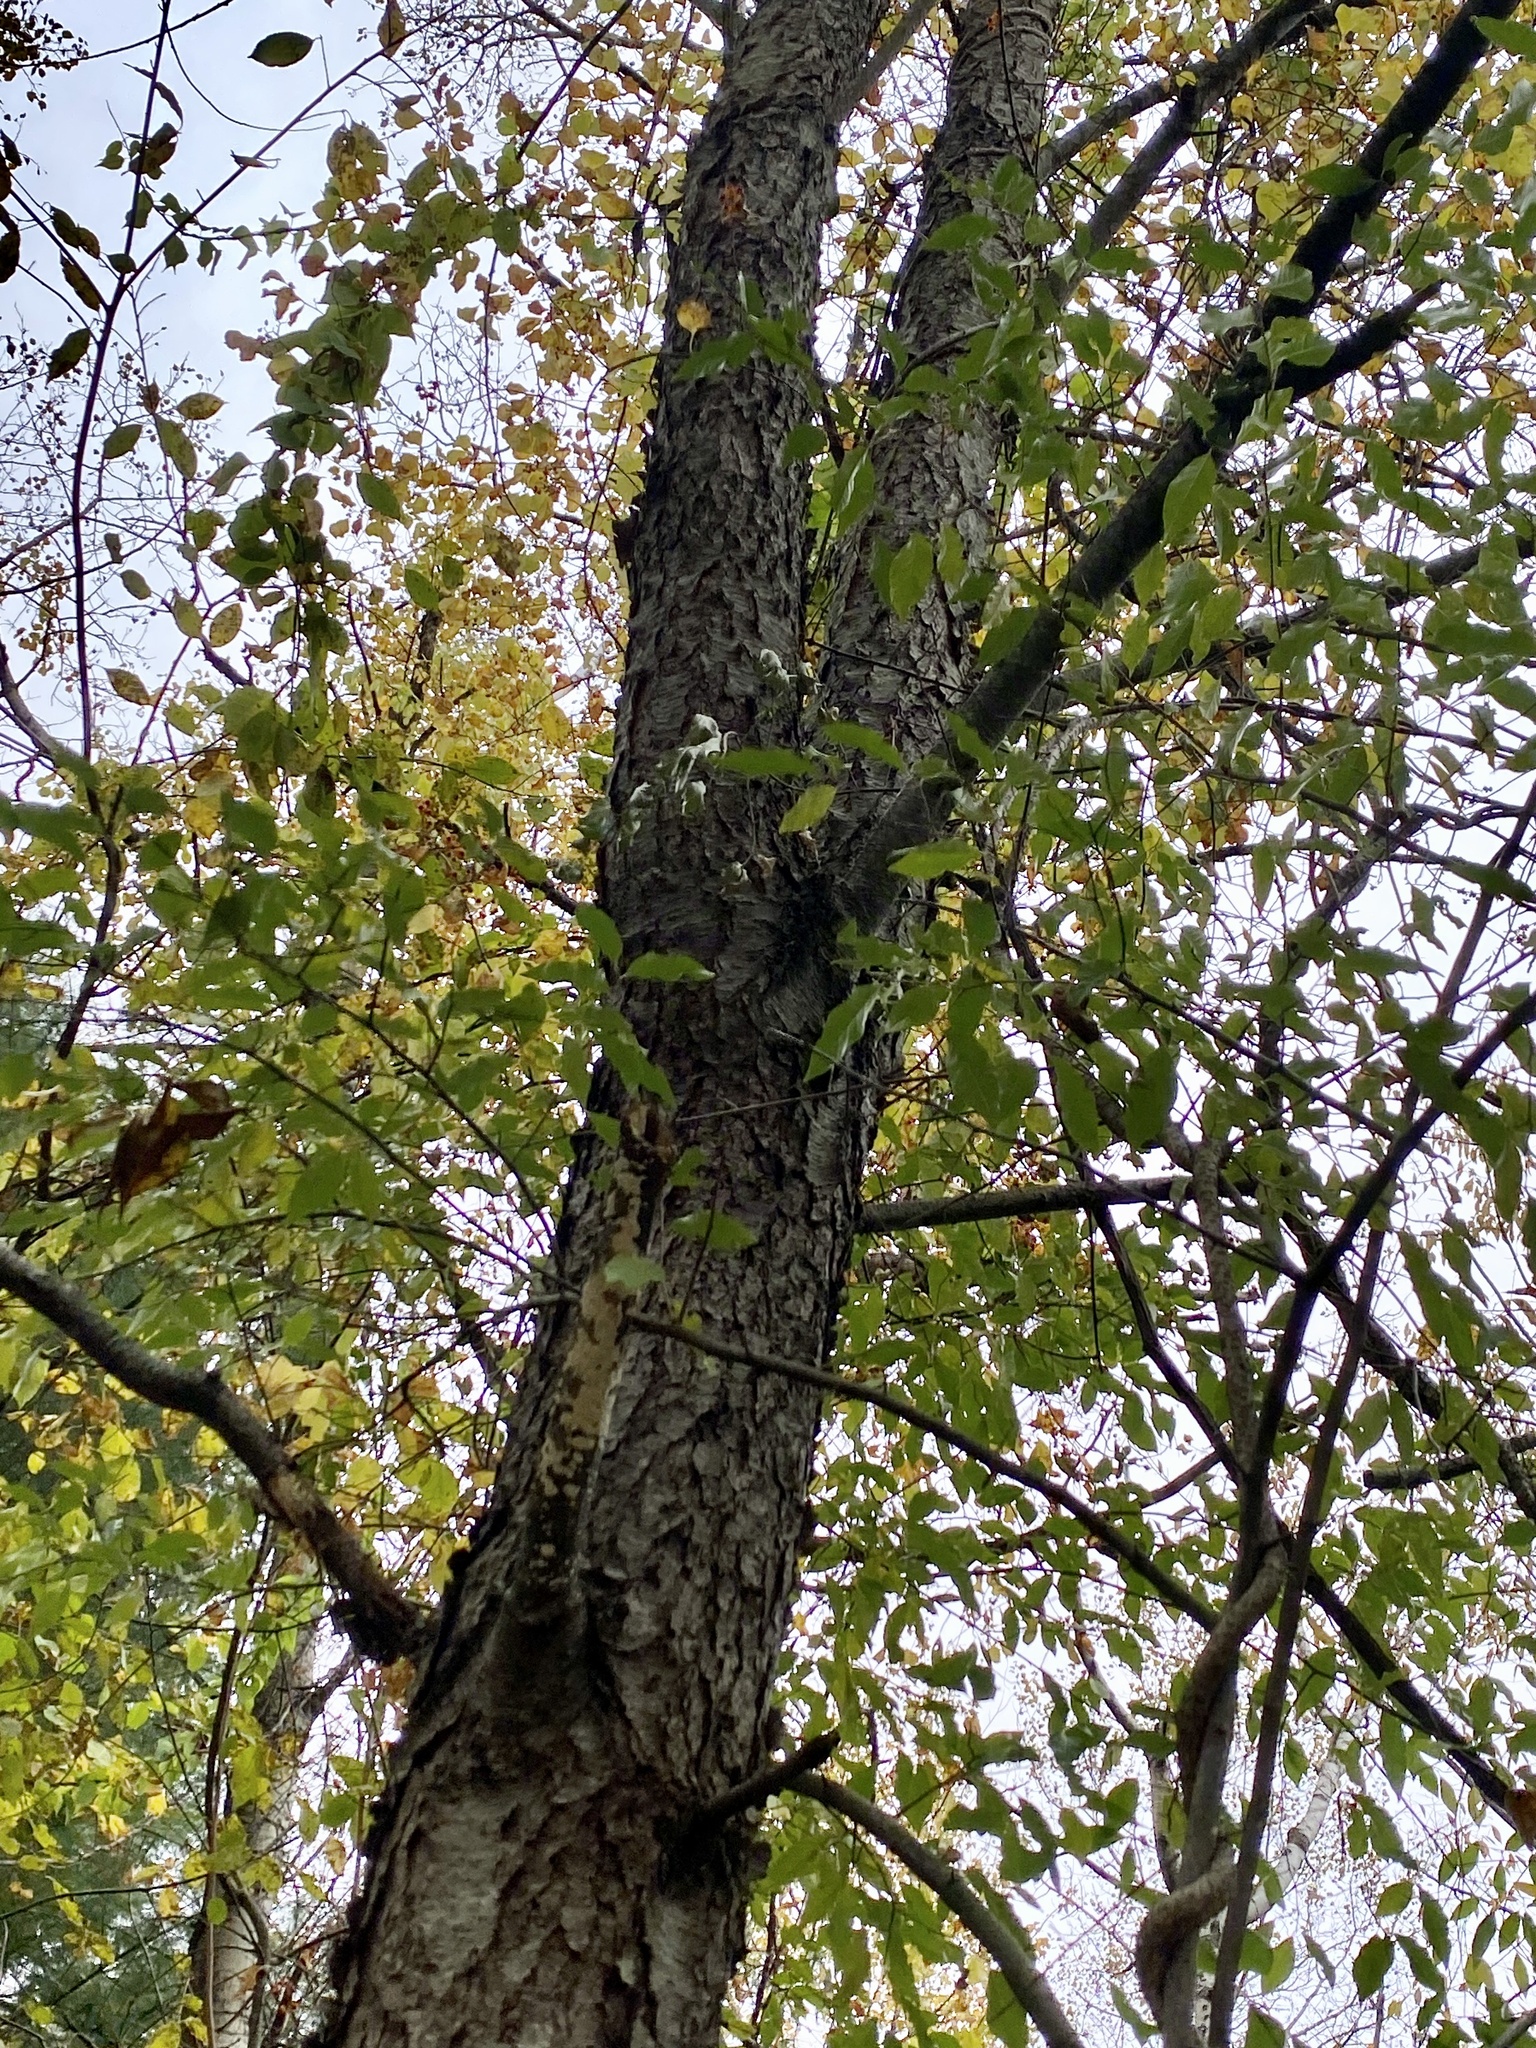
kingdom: Plantae
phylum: Tracheophyta
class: Magnoliopsida
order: Rosales
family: Rosaceae
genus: Prunus
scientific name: Prunus serotina
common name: Black cherry
